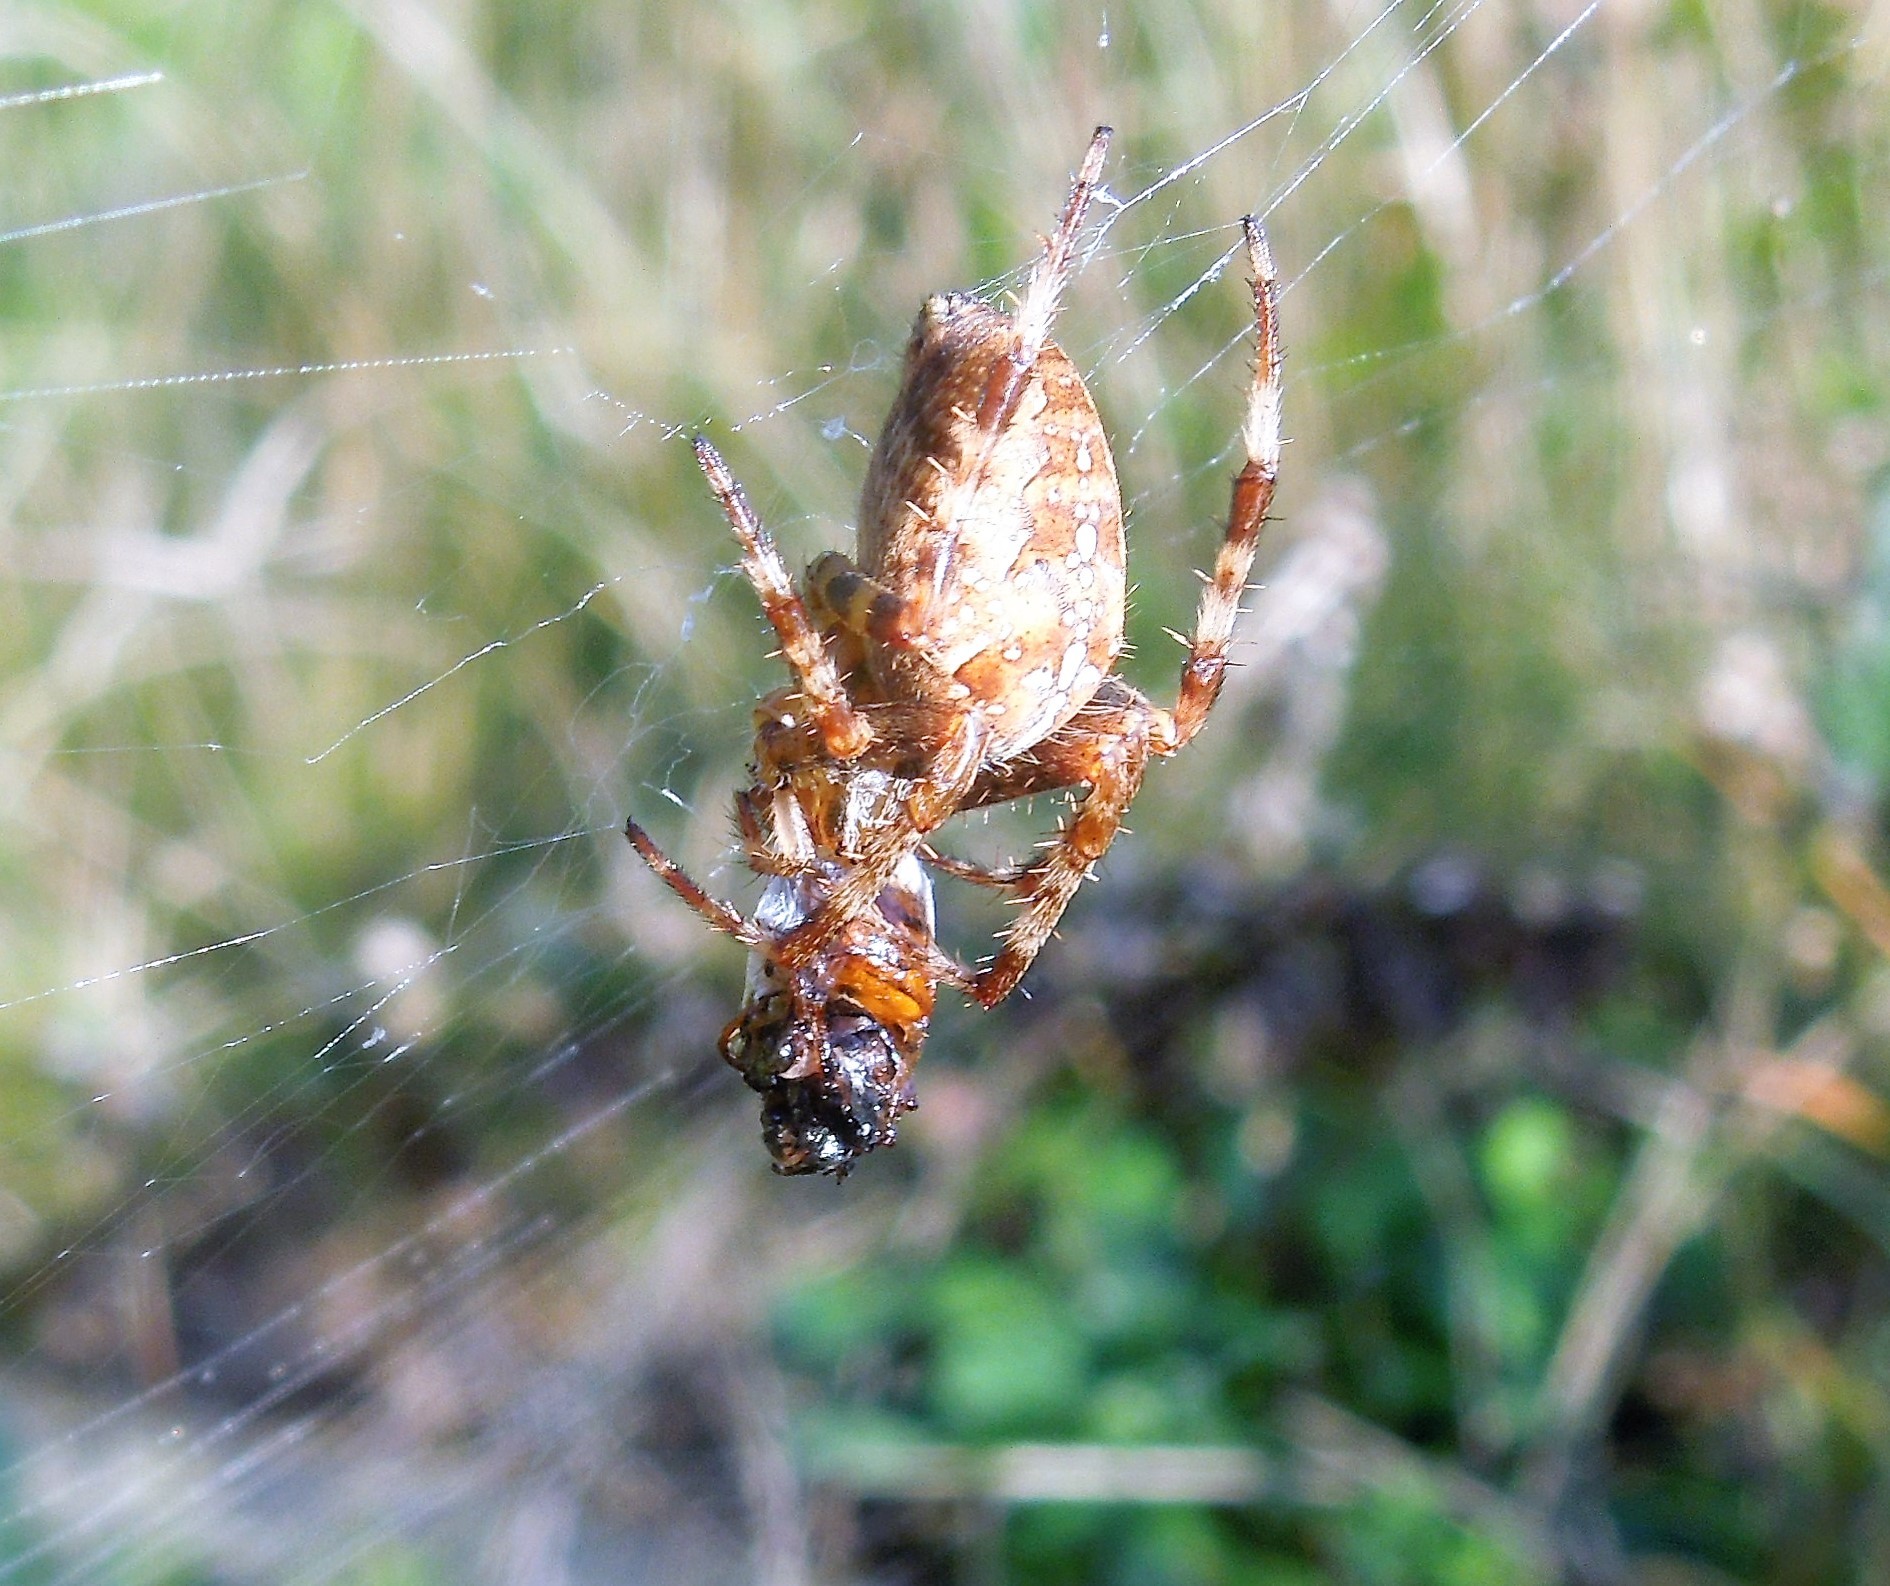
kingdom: Animalia
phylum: Arthropoda
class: Arachnida
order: Araneae
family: Araneidae
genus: Araneus
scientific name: Araneus diadematus
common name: Cross orbweaver
